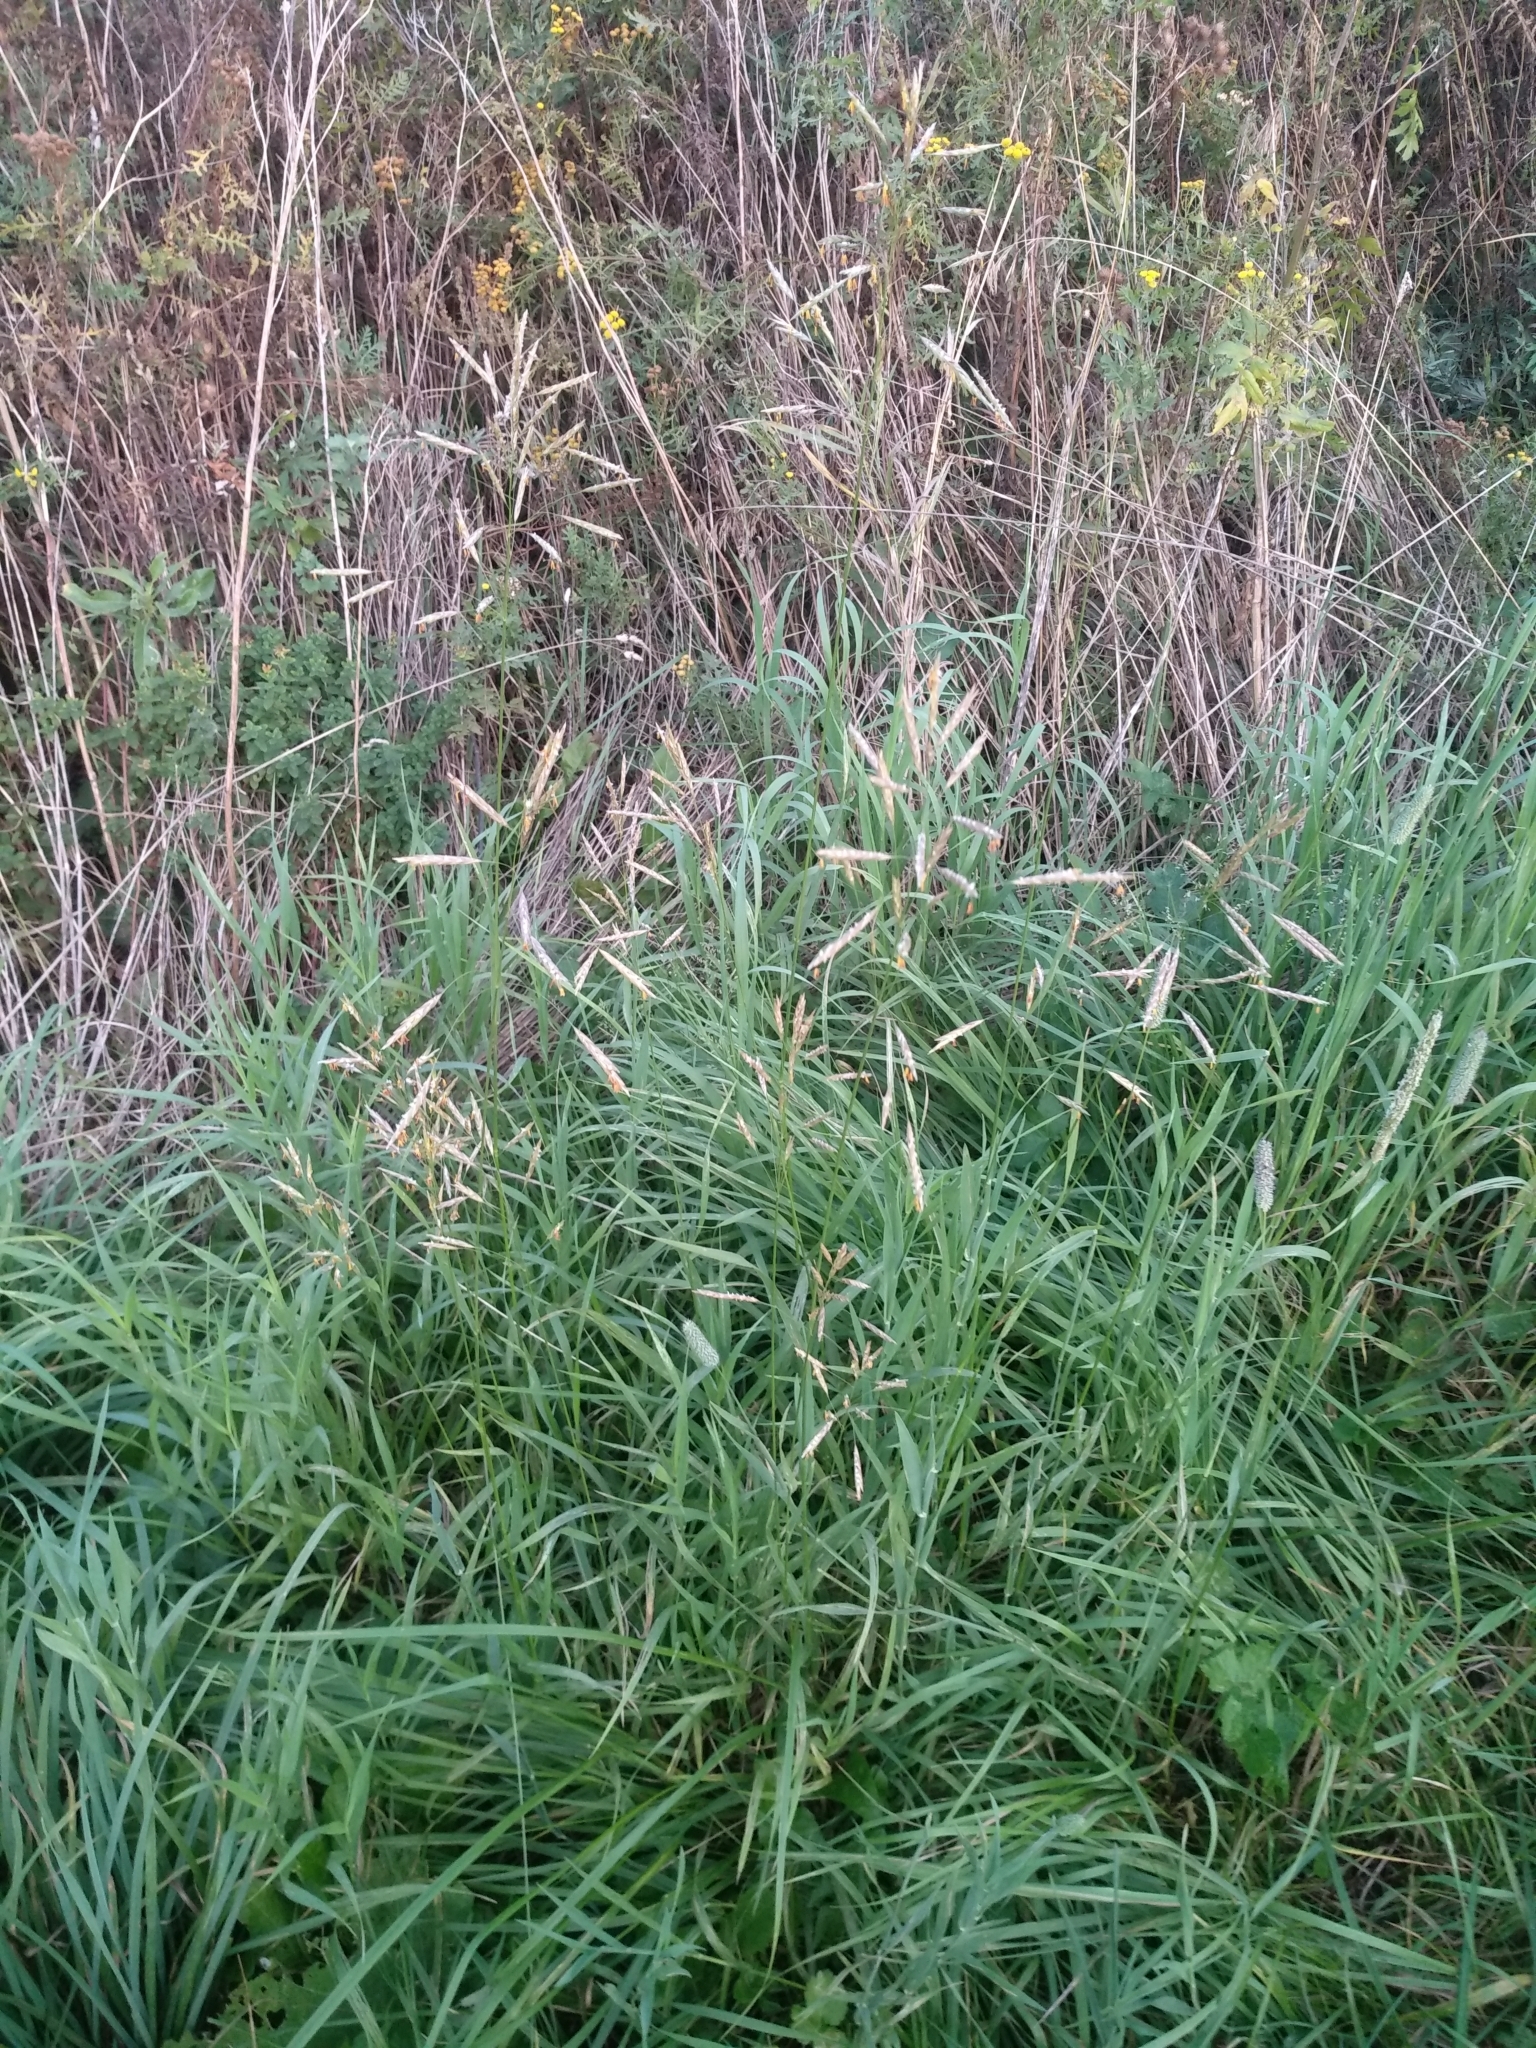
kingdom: Plantae
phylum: Tracheophyta
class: Liliopsida
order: Poales
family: Poaceae
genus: Bromus
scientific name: Bromus inermis
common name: Smooth brome
